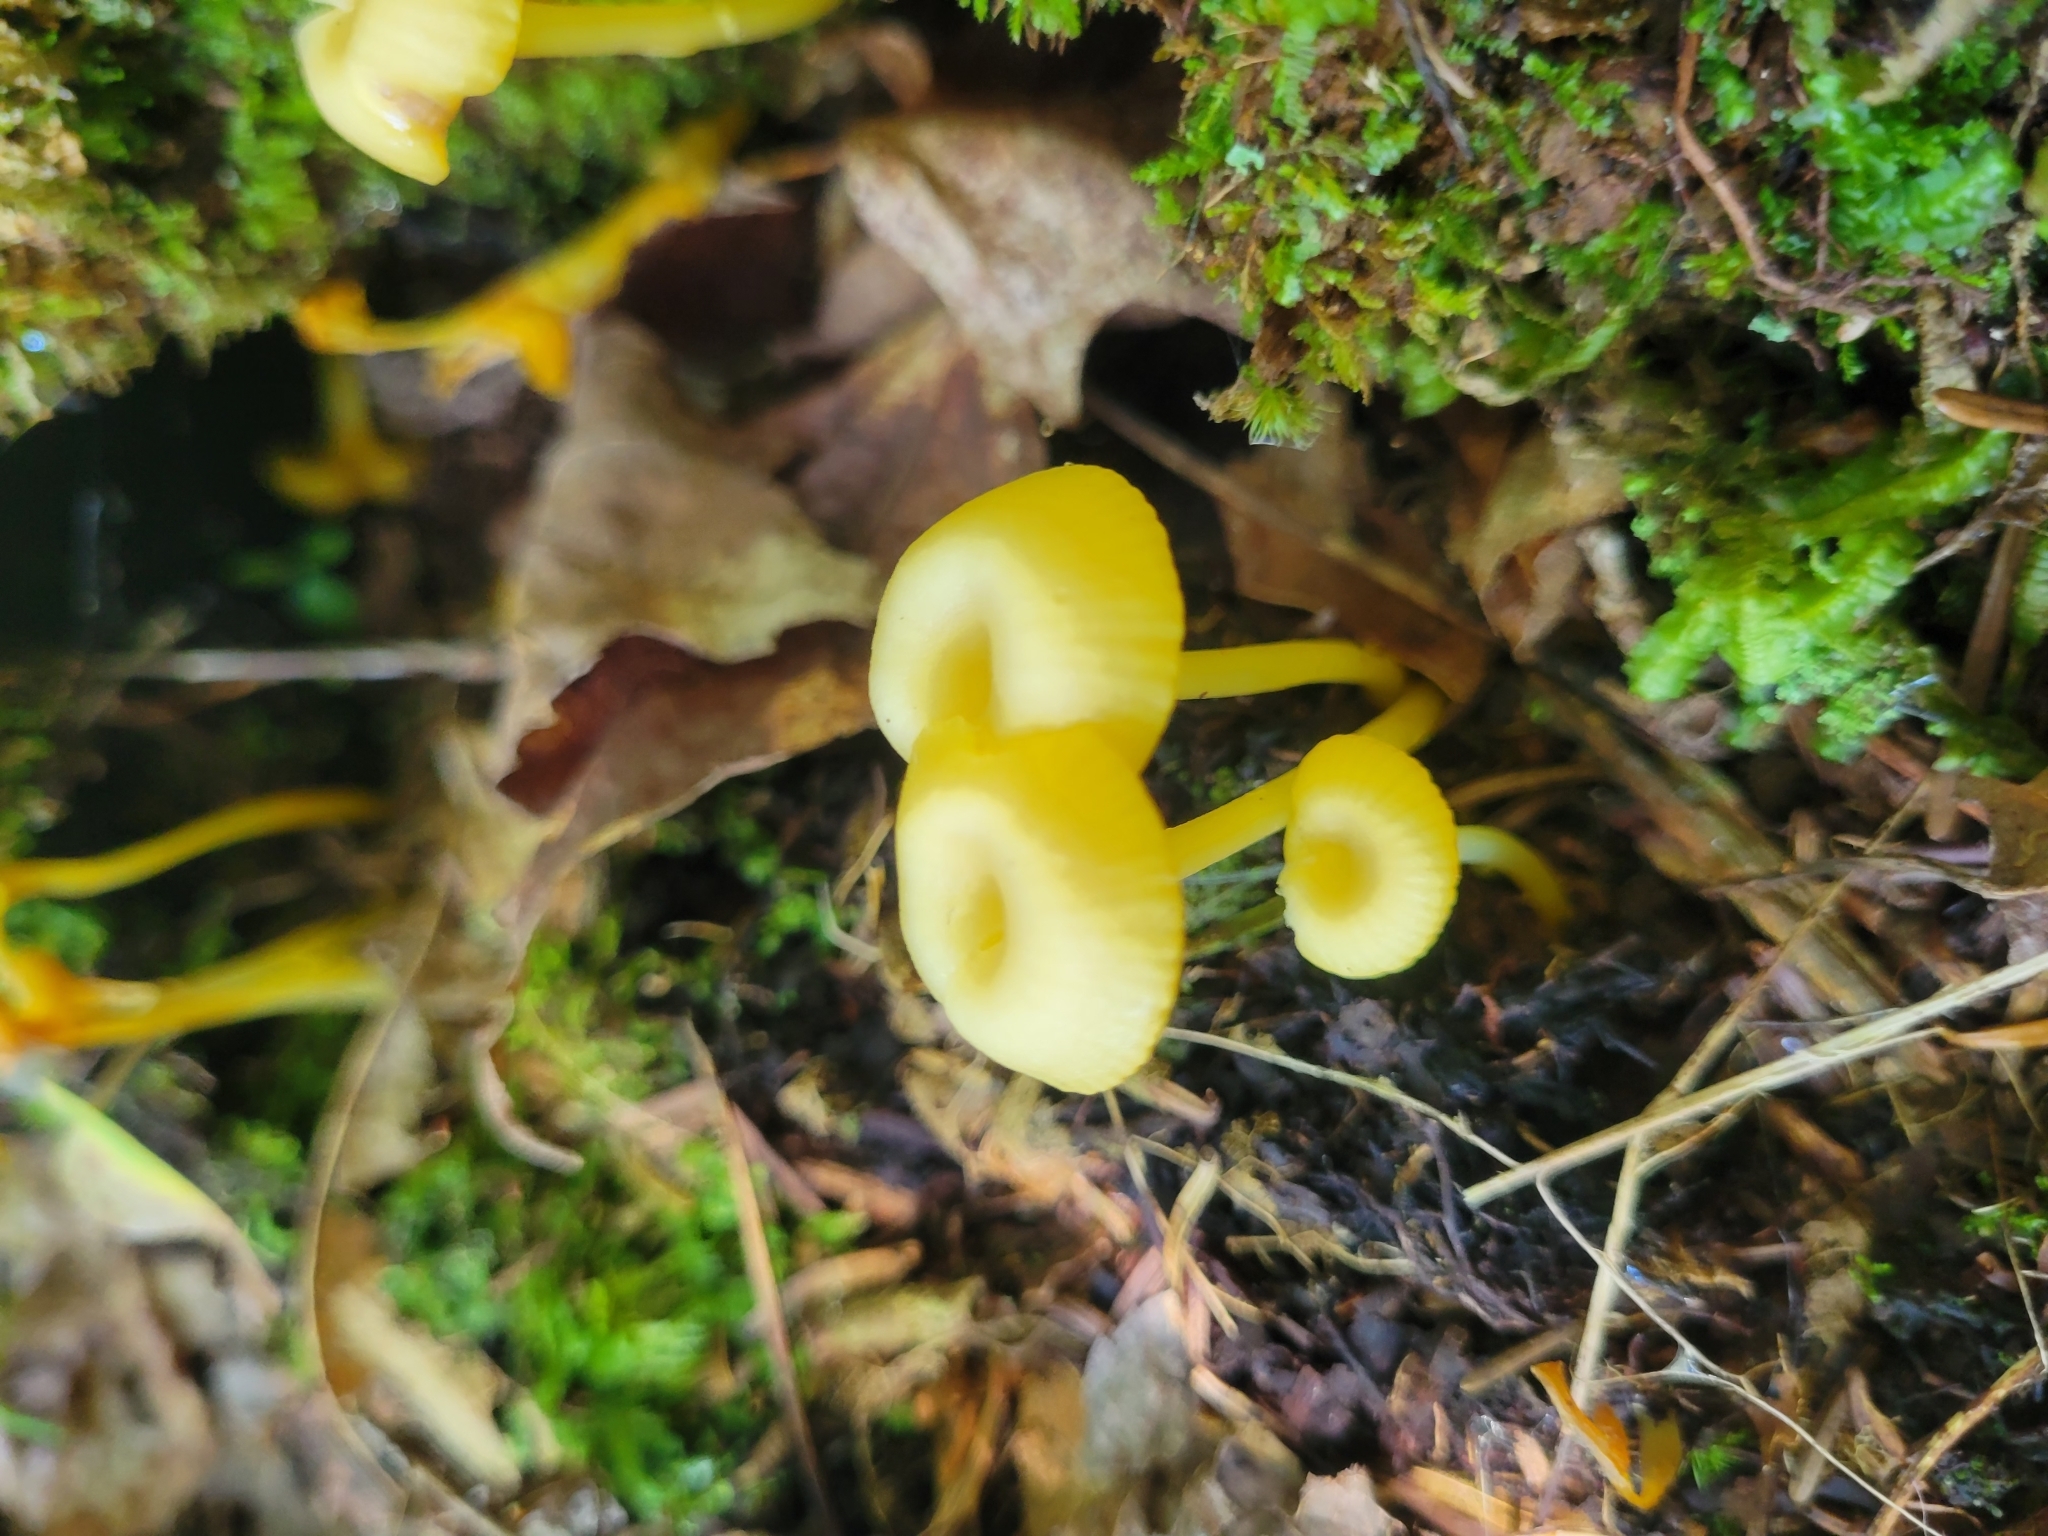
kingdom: Fungi
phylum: Basidiomycota
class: Agaricomycetes
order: Agaricales
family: Hygrophoraceae
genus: Gloioxanthomyces
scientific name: Gloioxanthomyces nitidus
